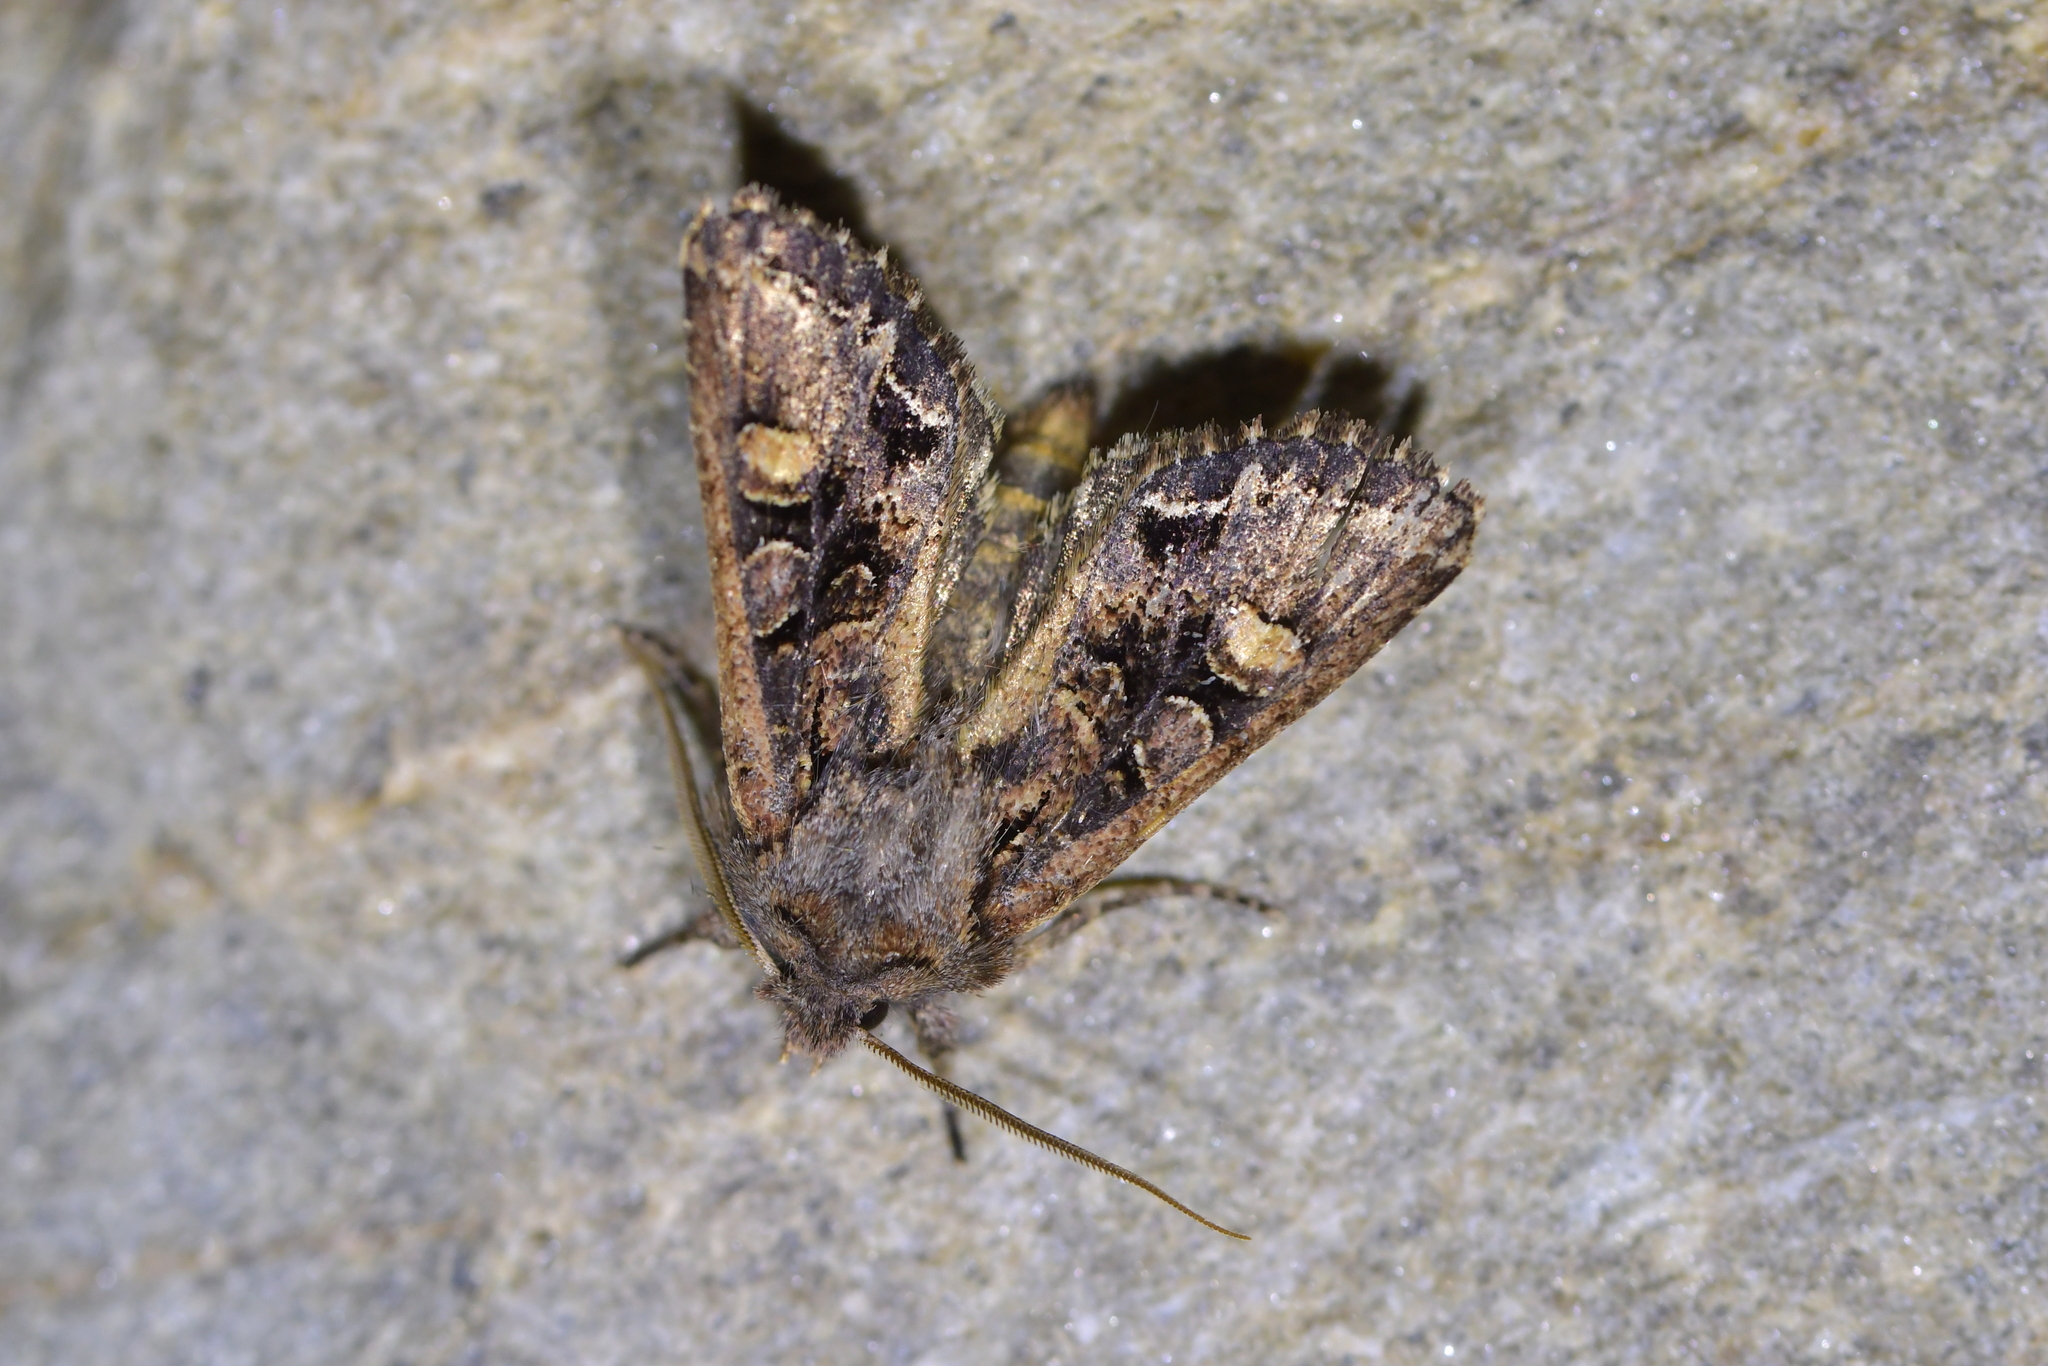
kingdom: Animalia
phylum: Arthropoda
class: Insecta
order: Lepidoptera
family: Noctuidae
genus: Ichneutica
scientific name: Ichneutica skelloni
